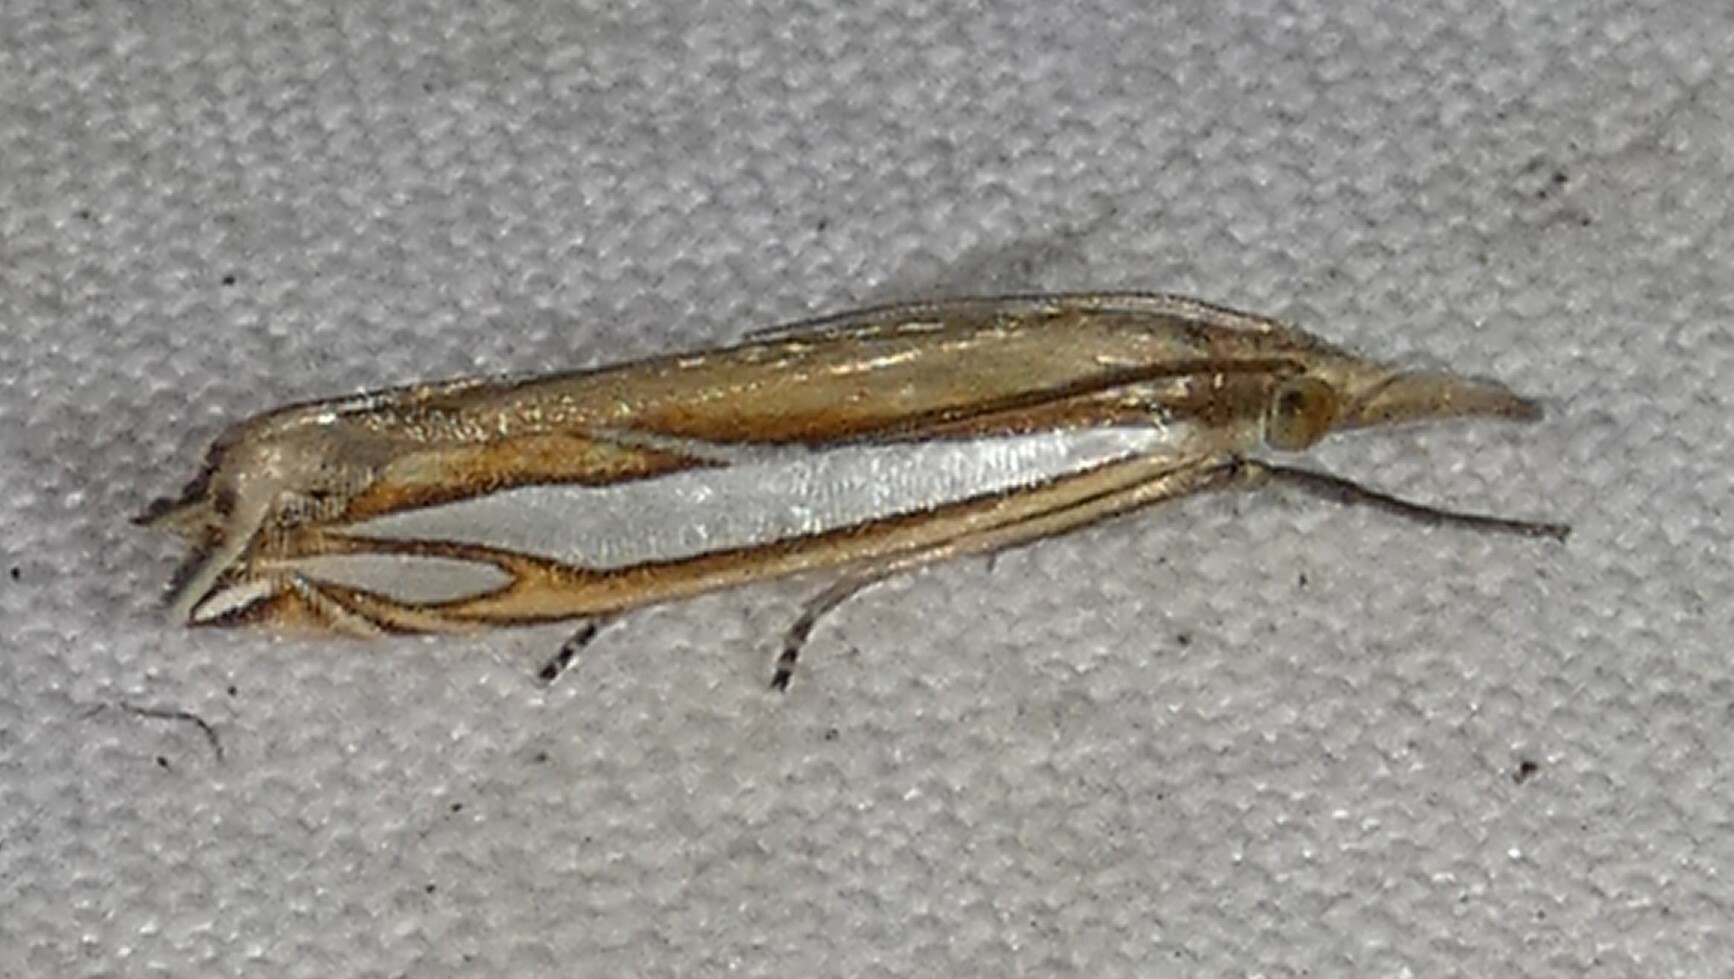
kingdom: Animalia
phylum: Arthropoda
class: Insecta
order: Lepidoptera
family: Crambidae
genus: Crambus
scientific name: Crambus satrapellus
